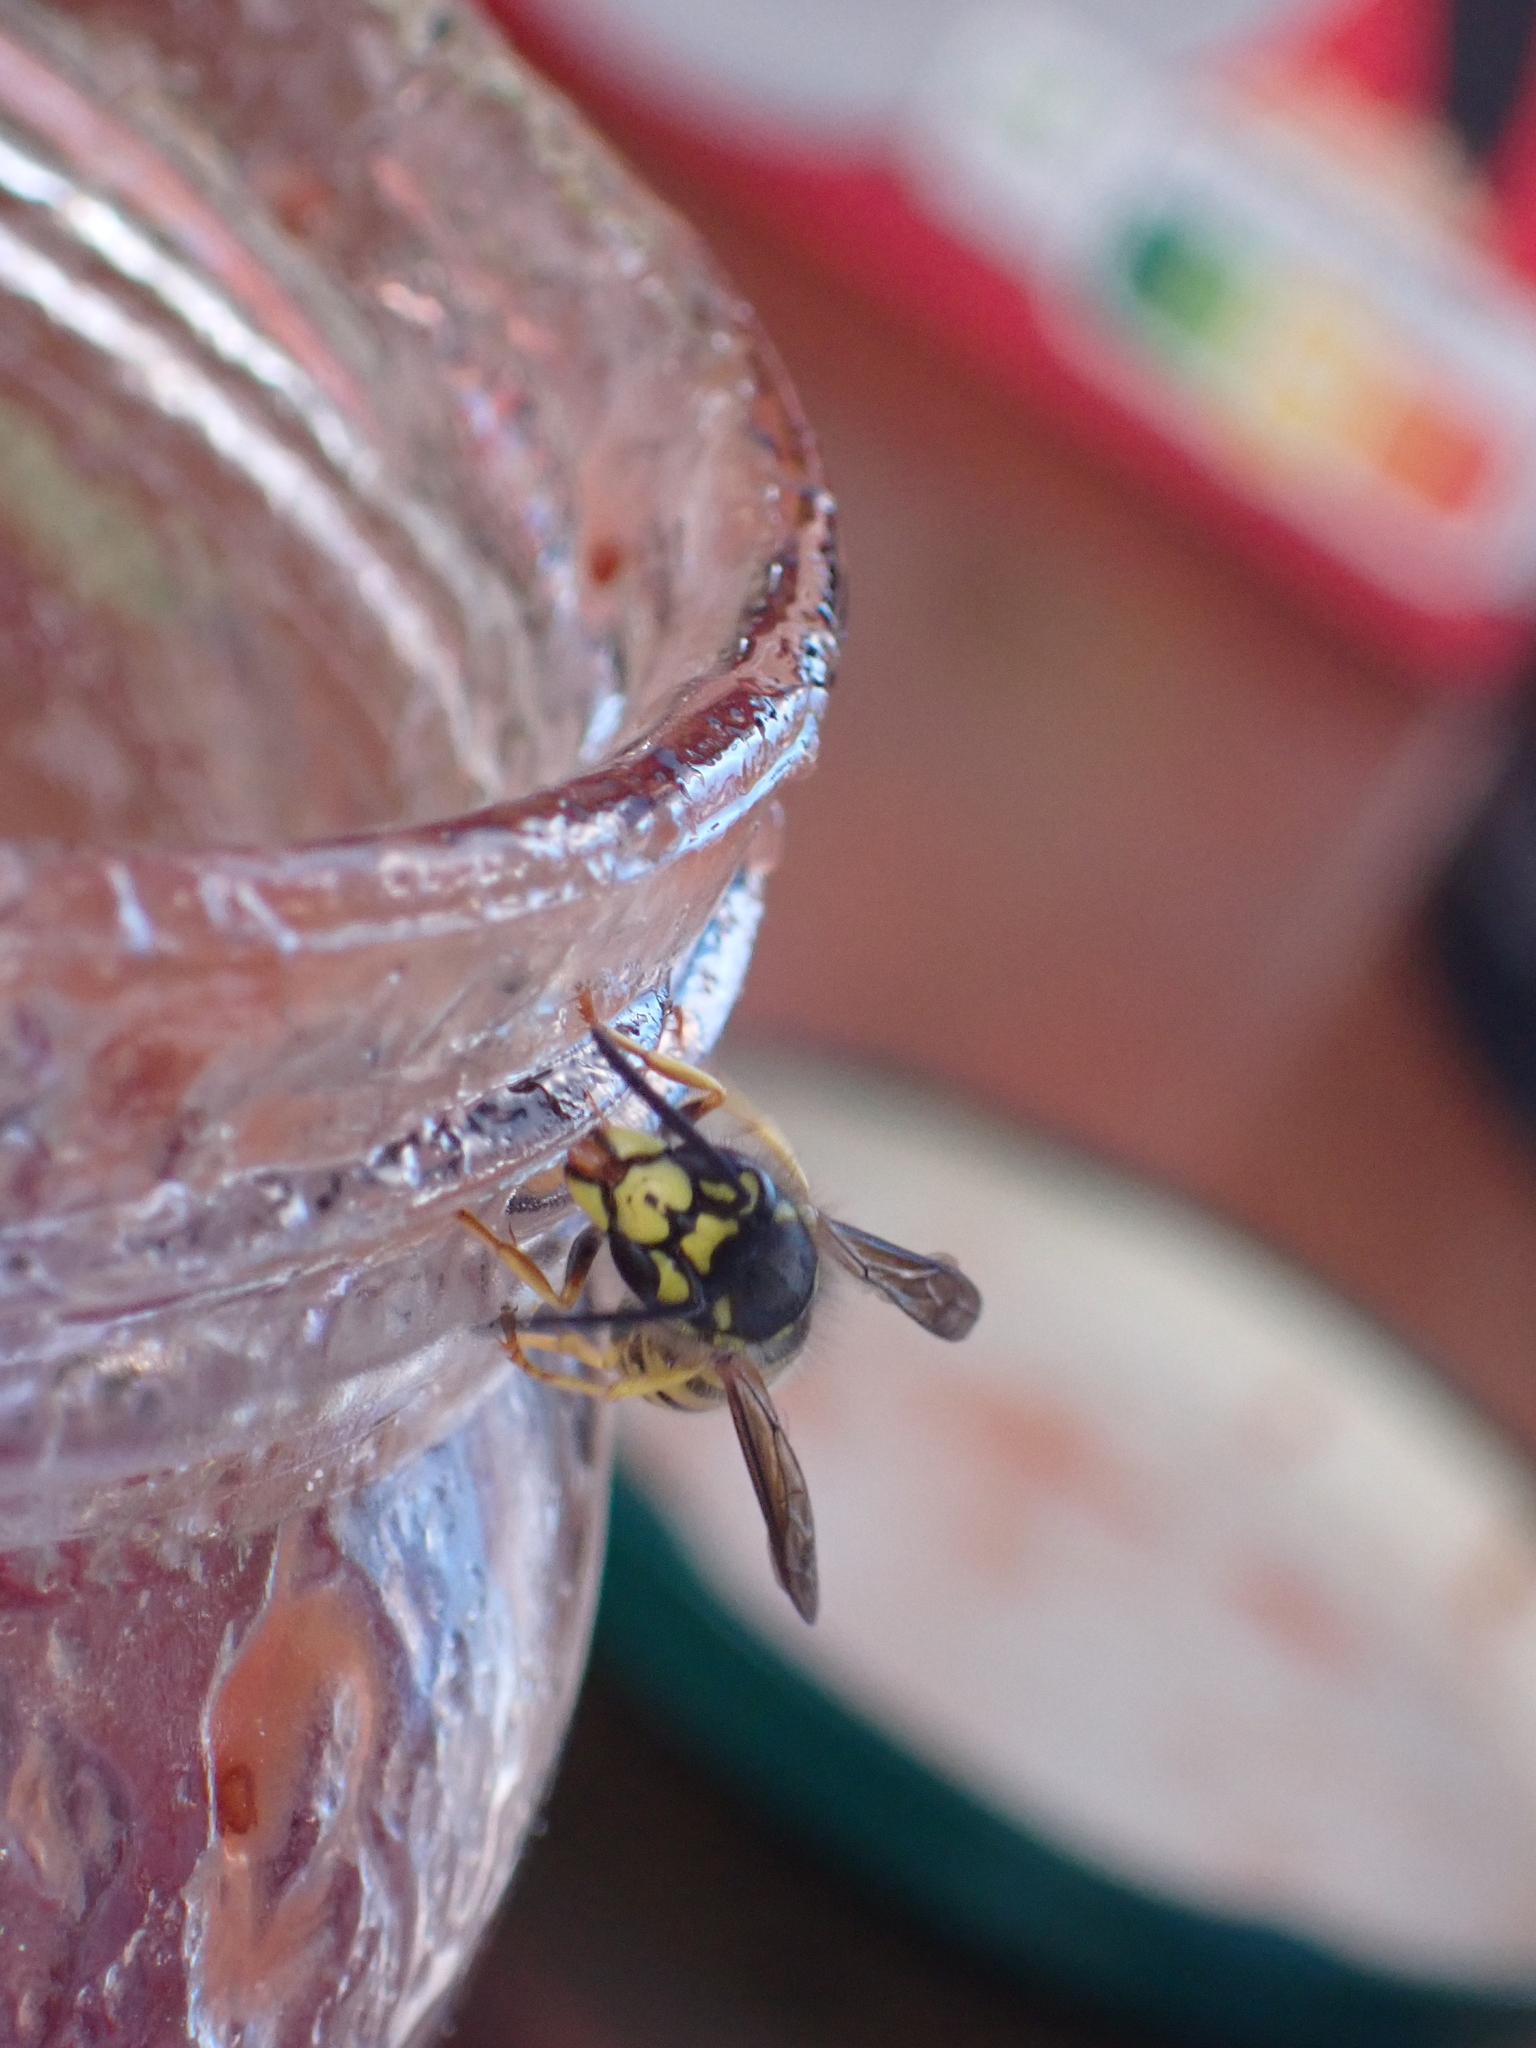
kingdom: Animalia
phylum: Arthropoda
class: Insecta
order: Hymenoptera
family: Vespidae
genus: Vespula
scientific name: Vespula germanica
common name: German wasp
